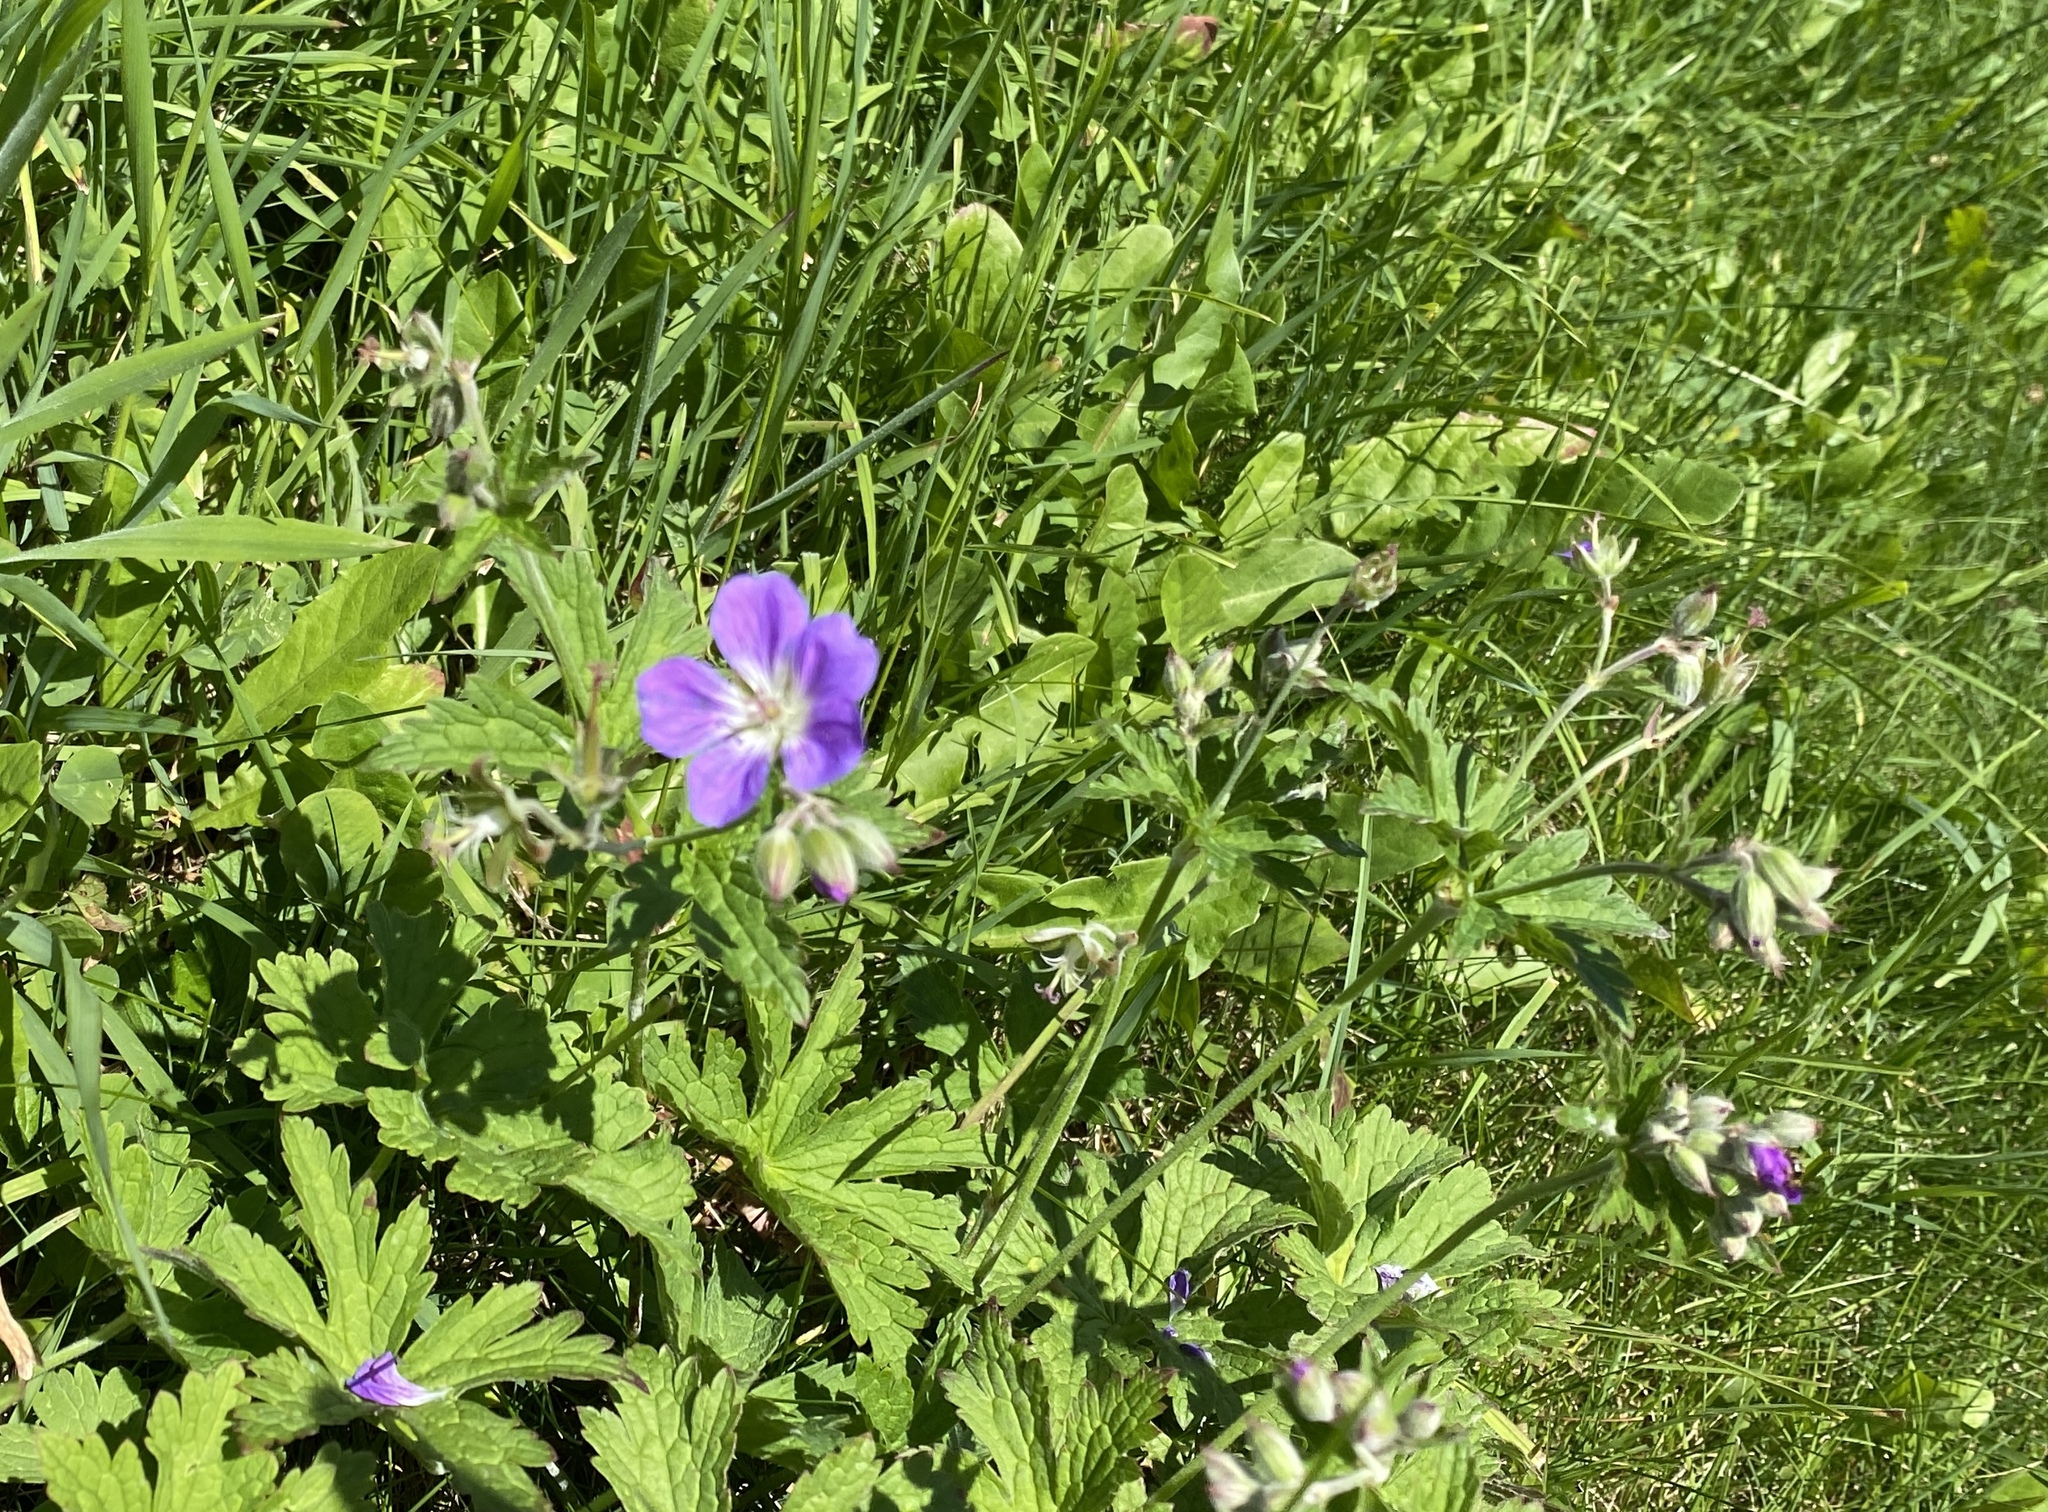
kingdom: Plantae
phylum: Tracheophyta
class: Magnoliopsida
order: Geraniales
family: Geraniaceae
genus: Geranium
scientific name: Geranium sylvaticum
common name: Wood crane's-bill
